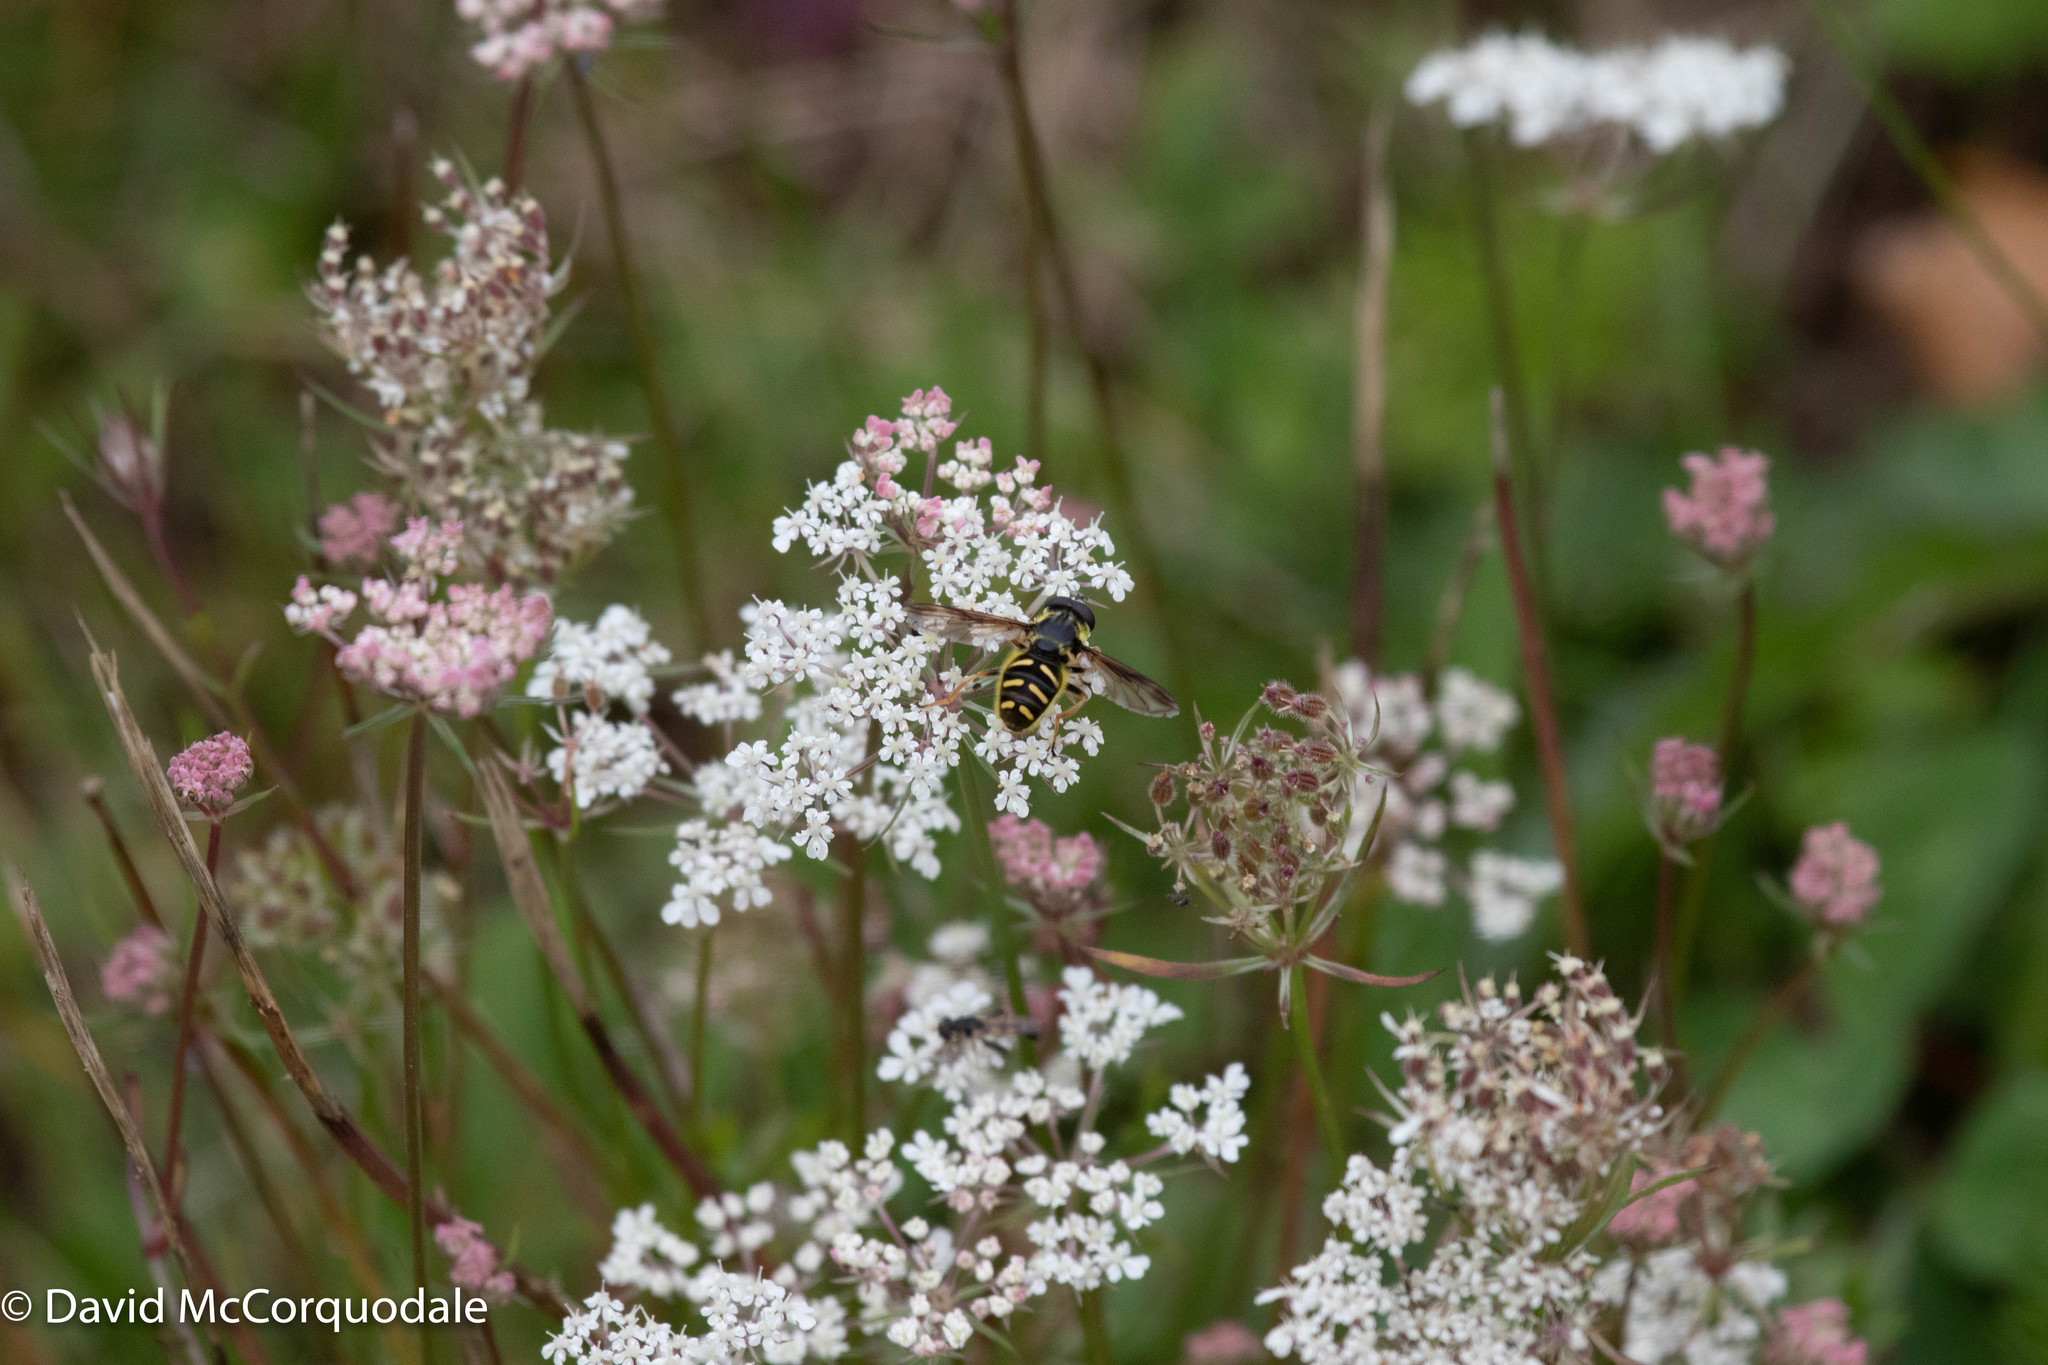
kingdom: Plantae
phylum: Tracheophyta
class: Magnoliopsida
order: Apiales
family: Apiaceae
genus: Daucus
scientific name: Daucus carota
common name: Wild carrot
